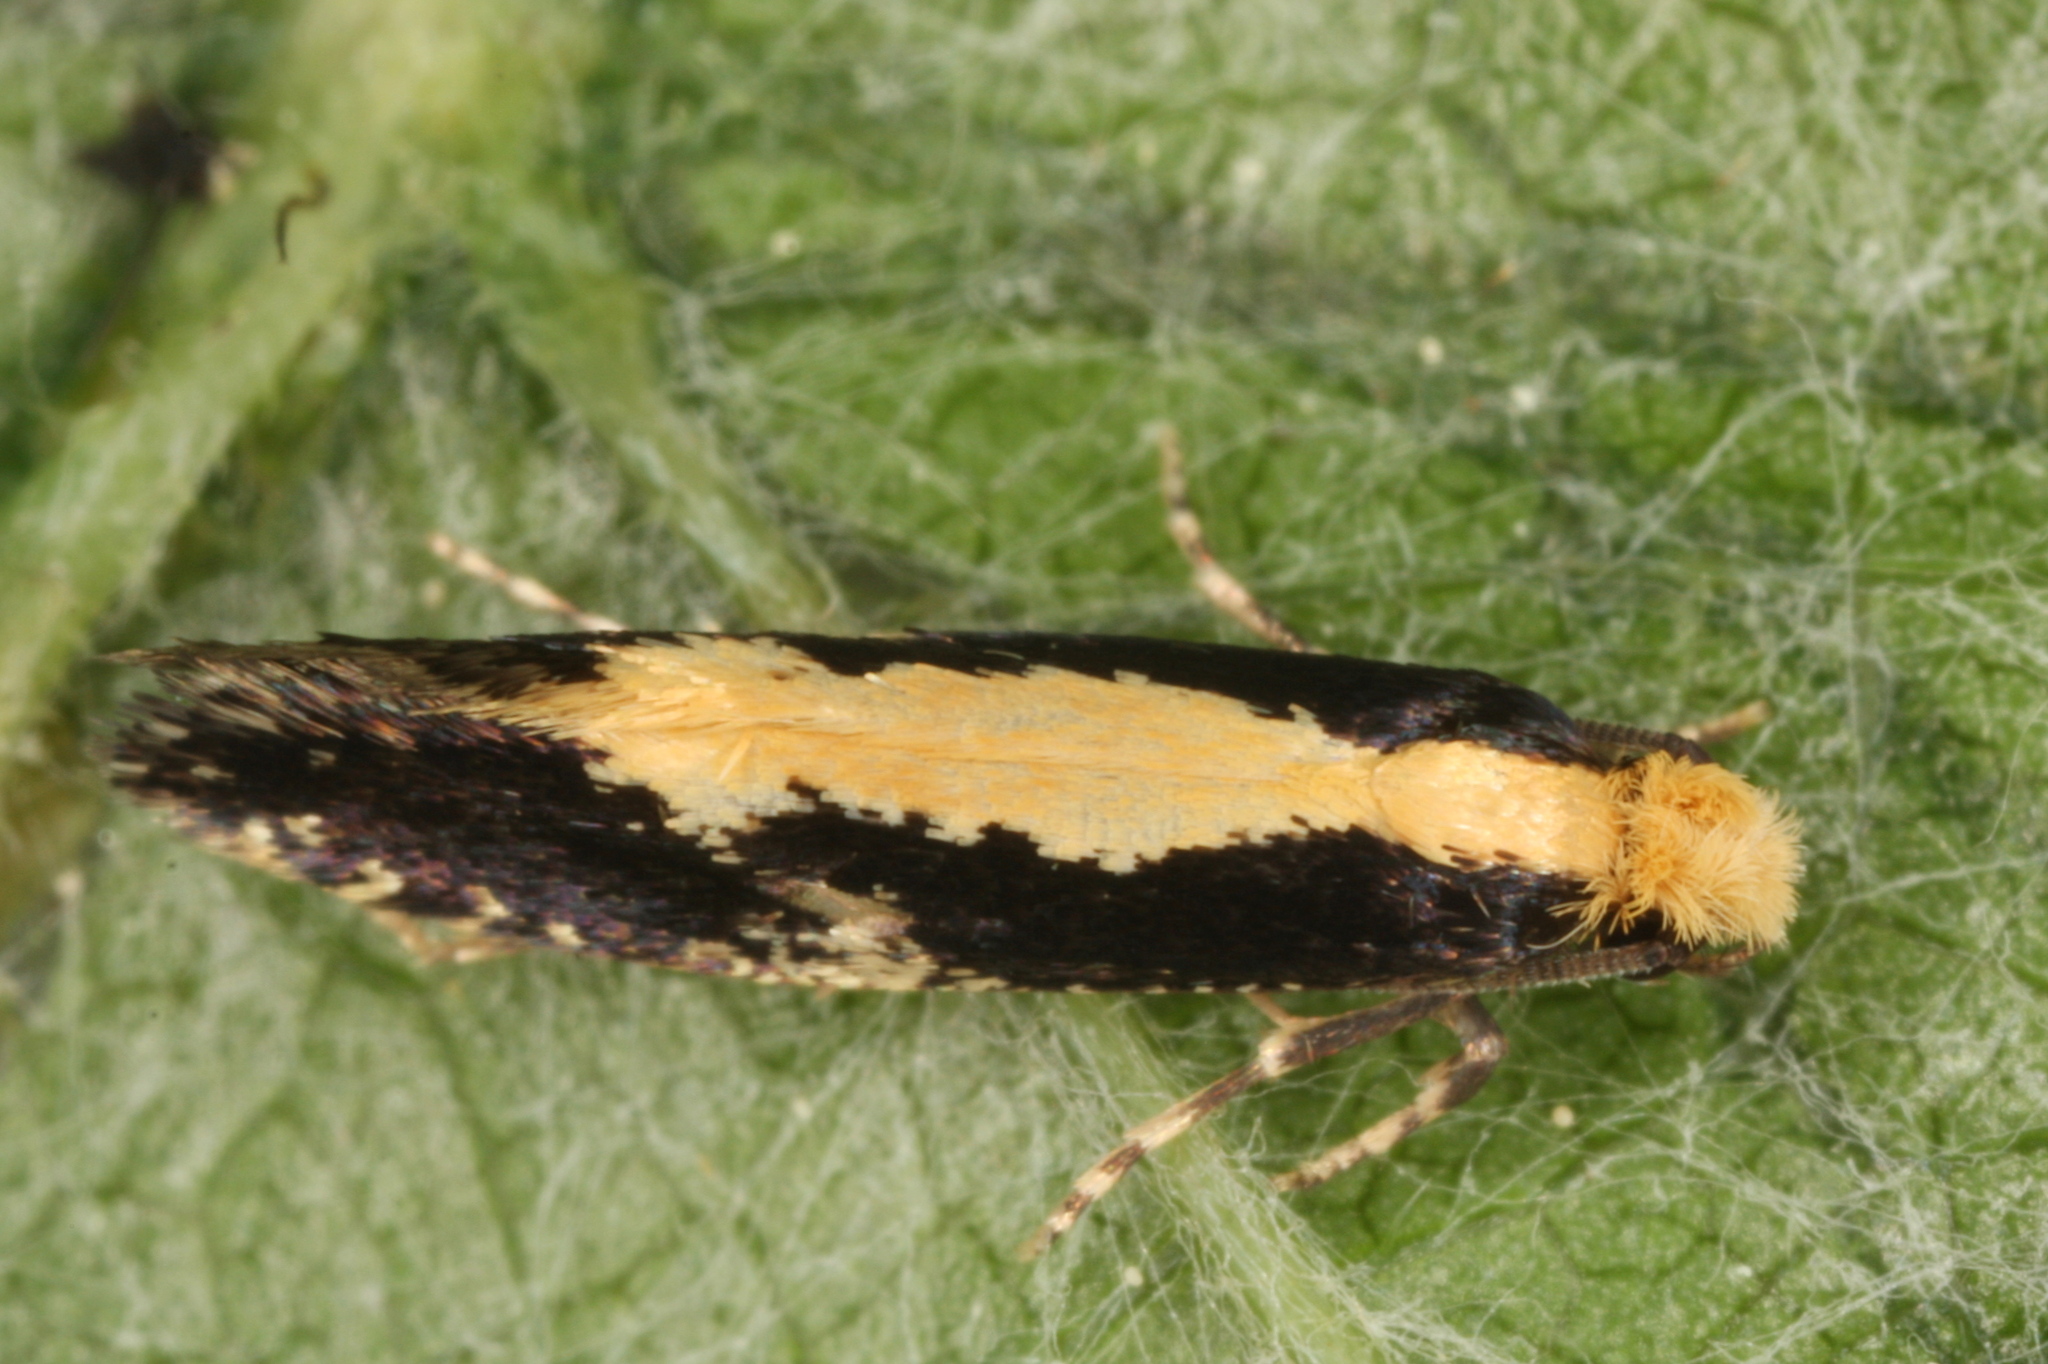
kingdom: Animalia
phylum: Arthropoda
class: Insecta
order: Lepidoptera
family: Tineidae
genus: Monopis
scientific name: Monopis obviella
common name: Tineid moth
